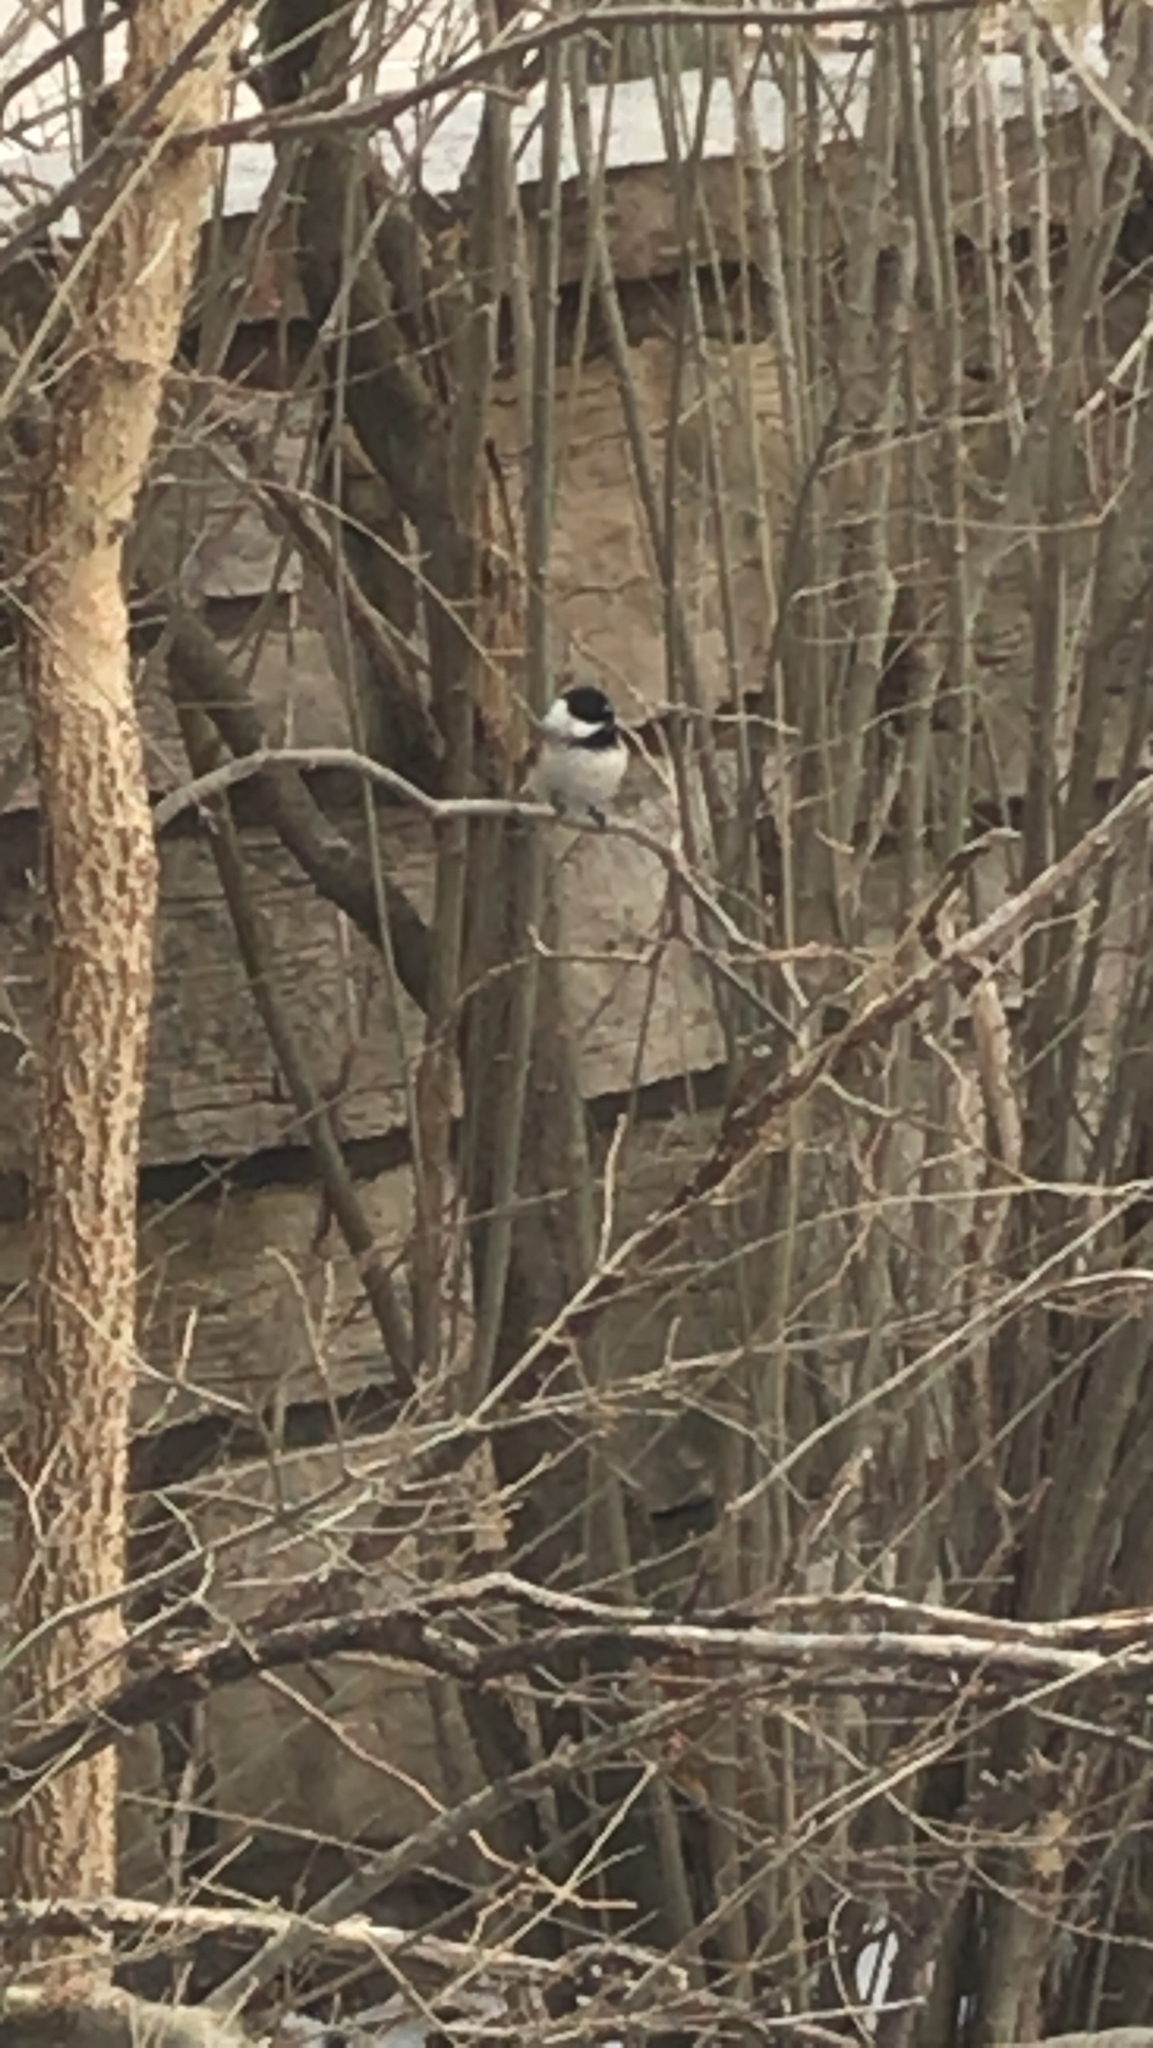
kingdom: Animalia
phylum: Chordata
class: Aves
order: Passeriformes
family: Paridae
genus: Poecile
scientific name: Poecile atricapillus
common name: Black-capped chickadee
